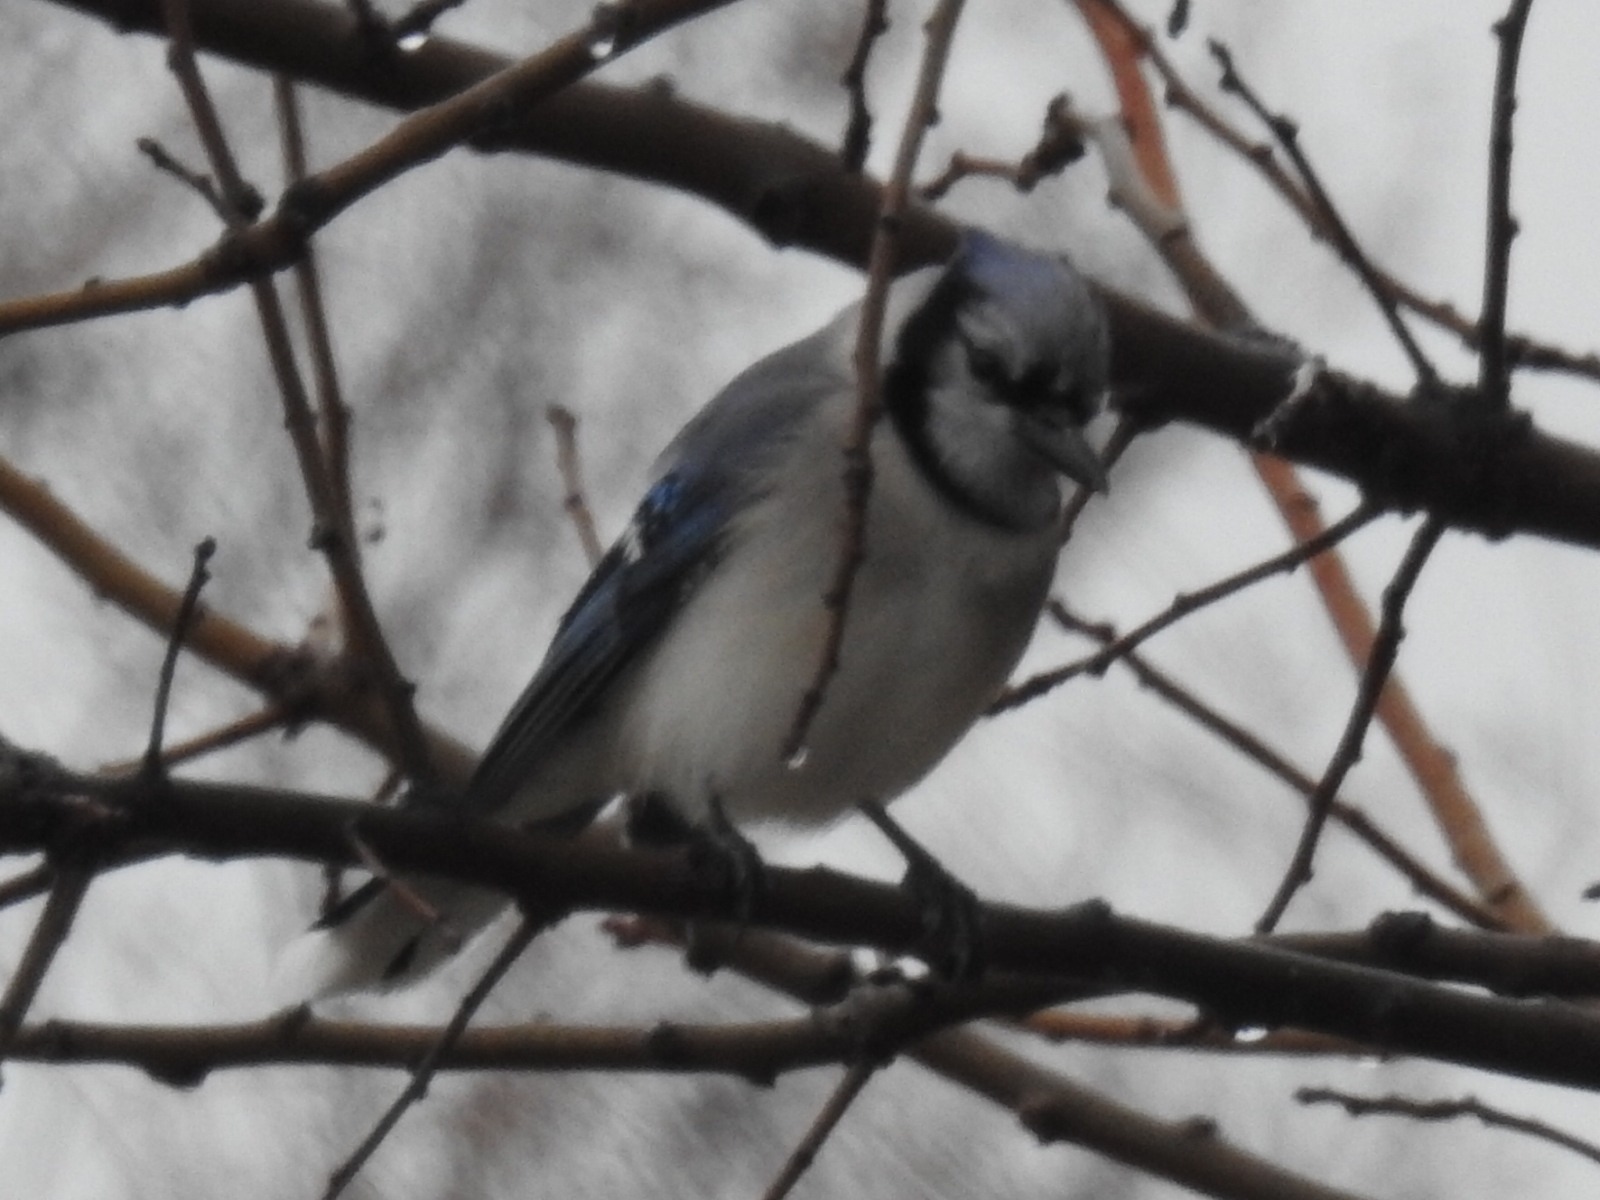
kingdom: Animalia
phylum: Chordata
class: Aves
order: Passeriformes
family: Corvidae
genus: Cyanocitta
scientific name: Cyanocitta cristata
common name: Blue jay
